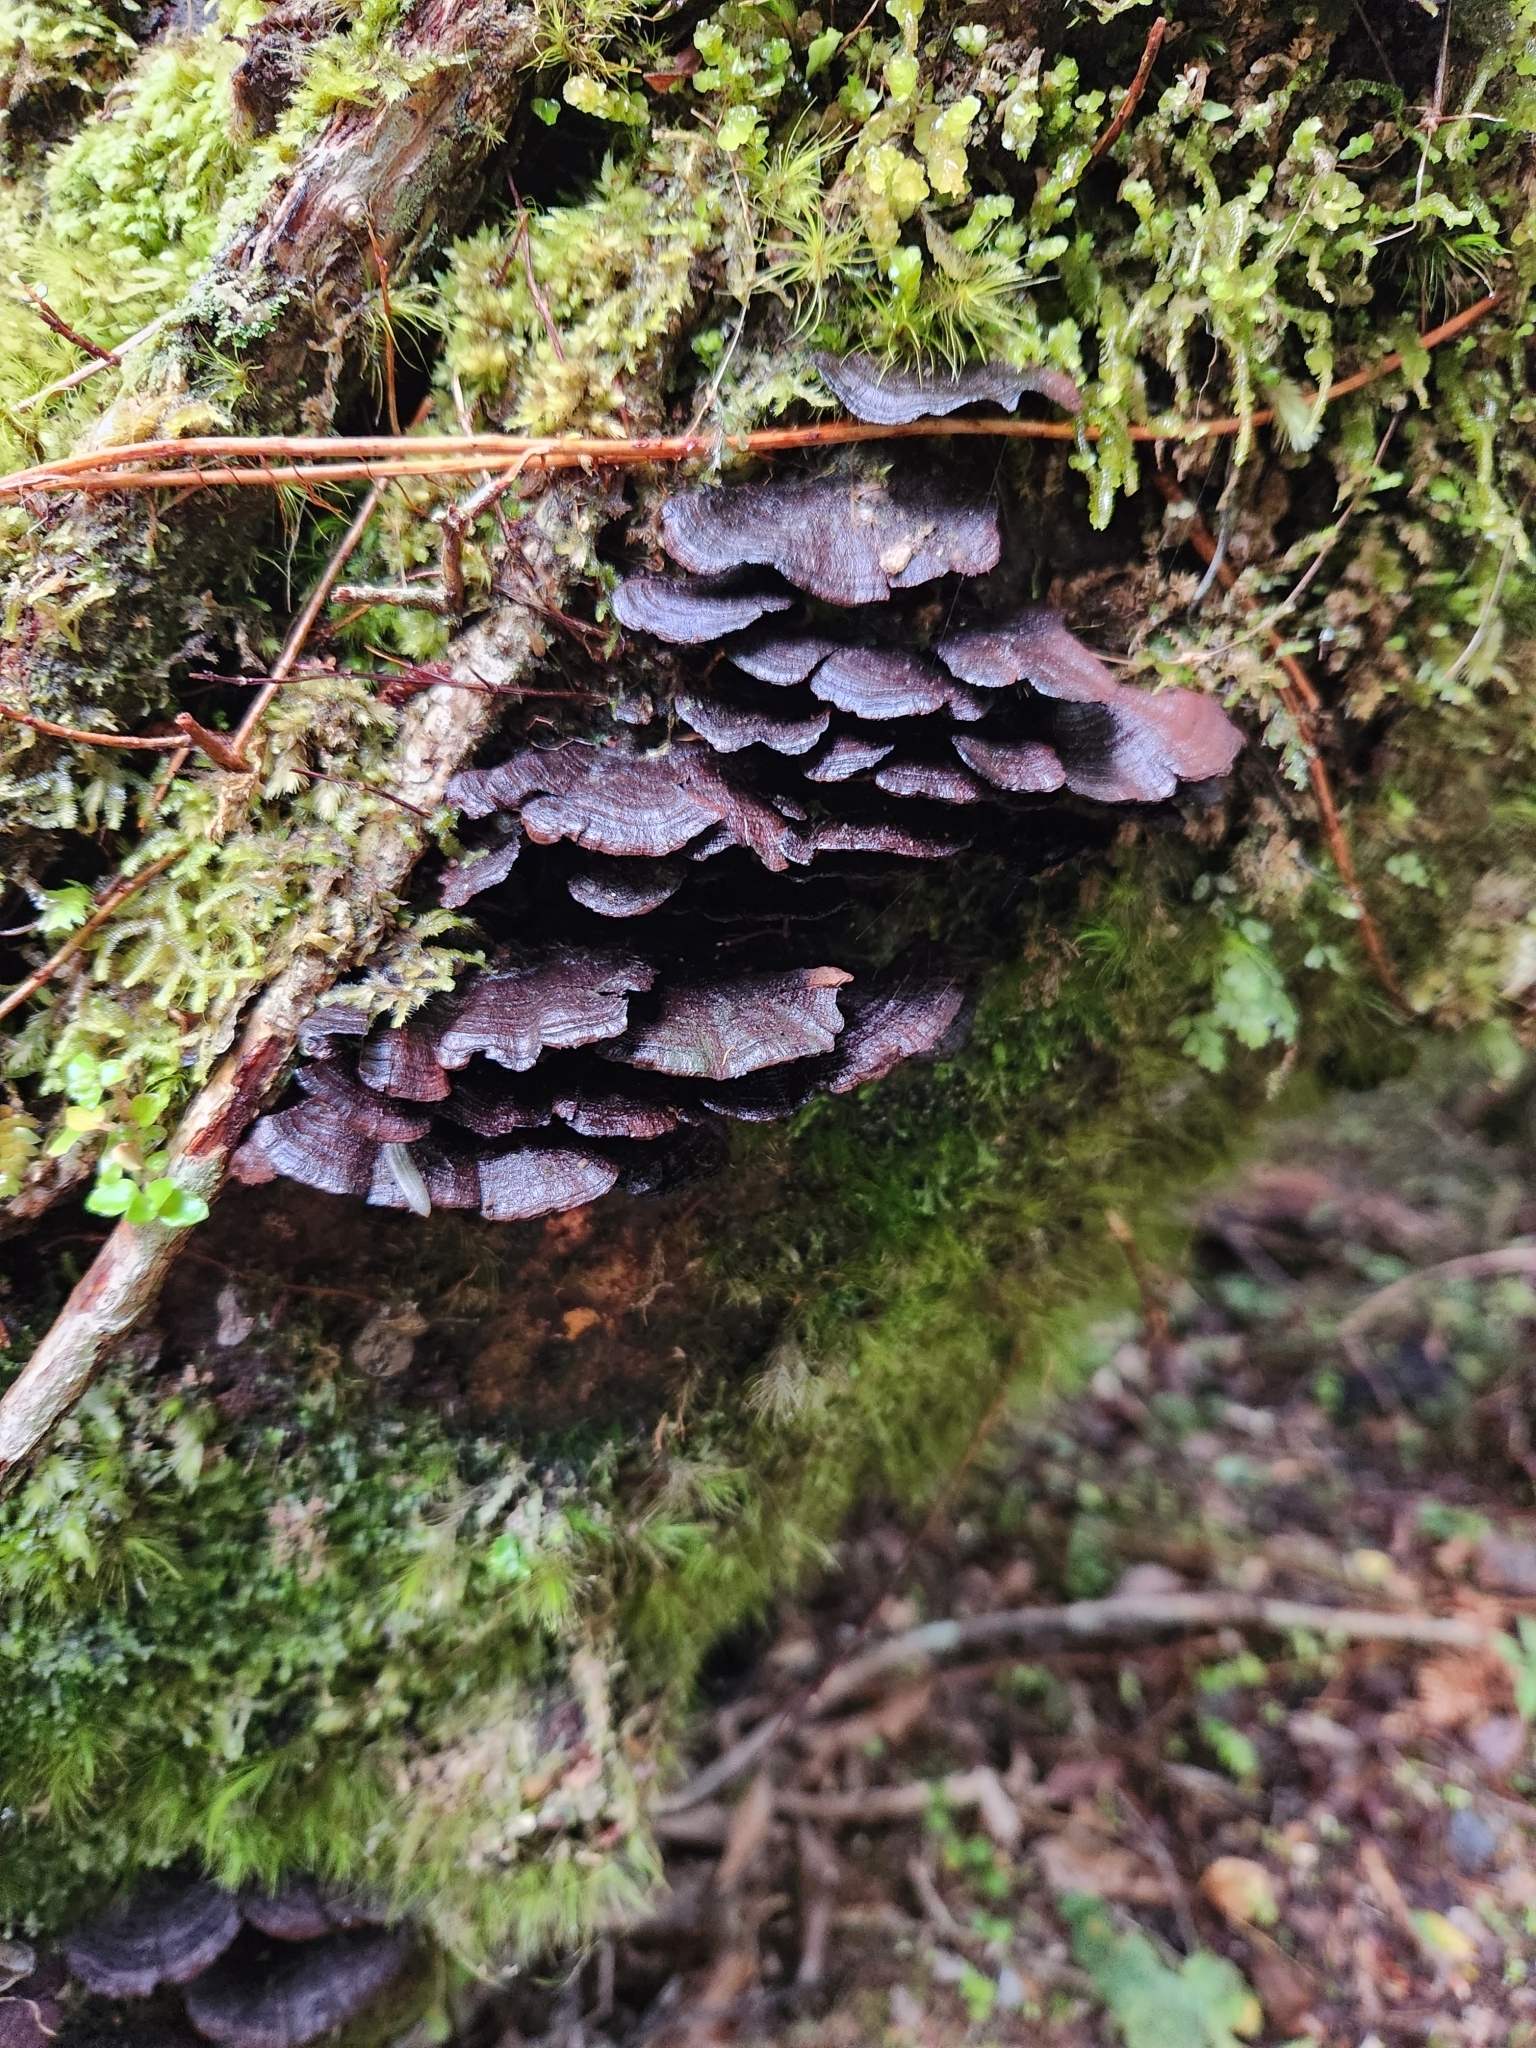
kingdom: Fungi
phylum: Basidiomycota
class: Agaricomycetes
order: Hymenochaetales
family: Hymenochaetaceae
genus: Hymenochaete
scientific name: Hymenochaete microcycla
